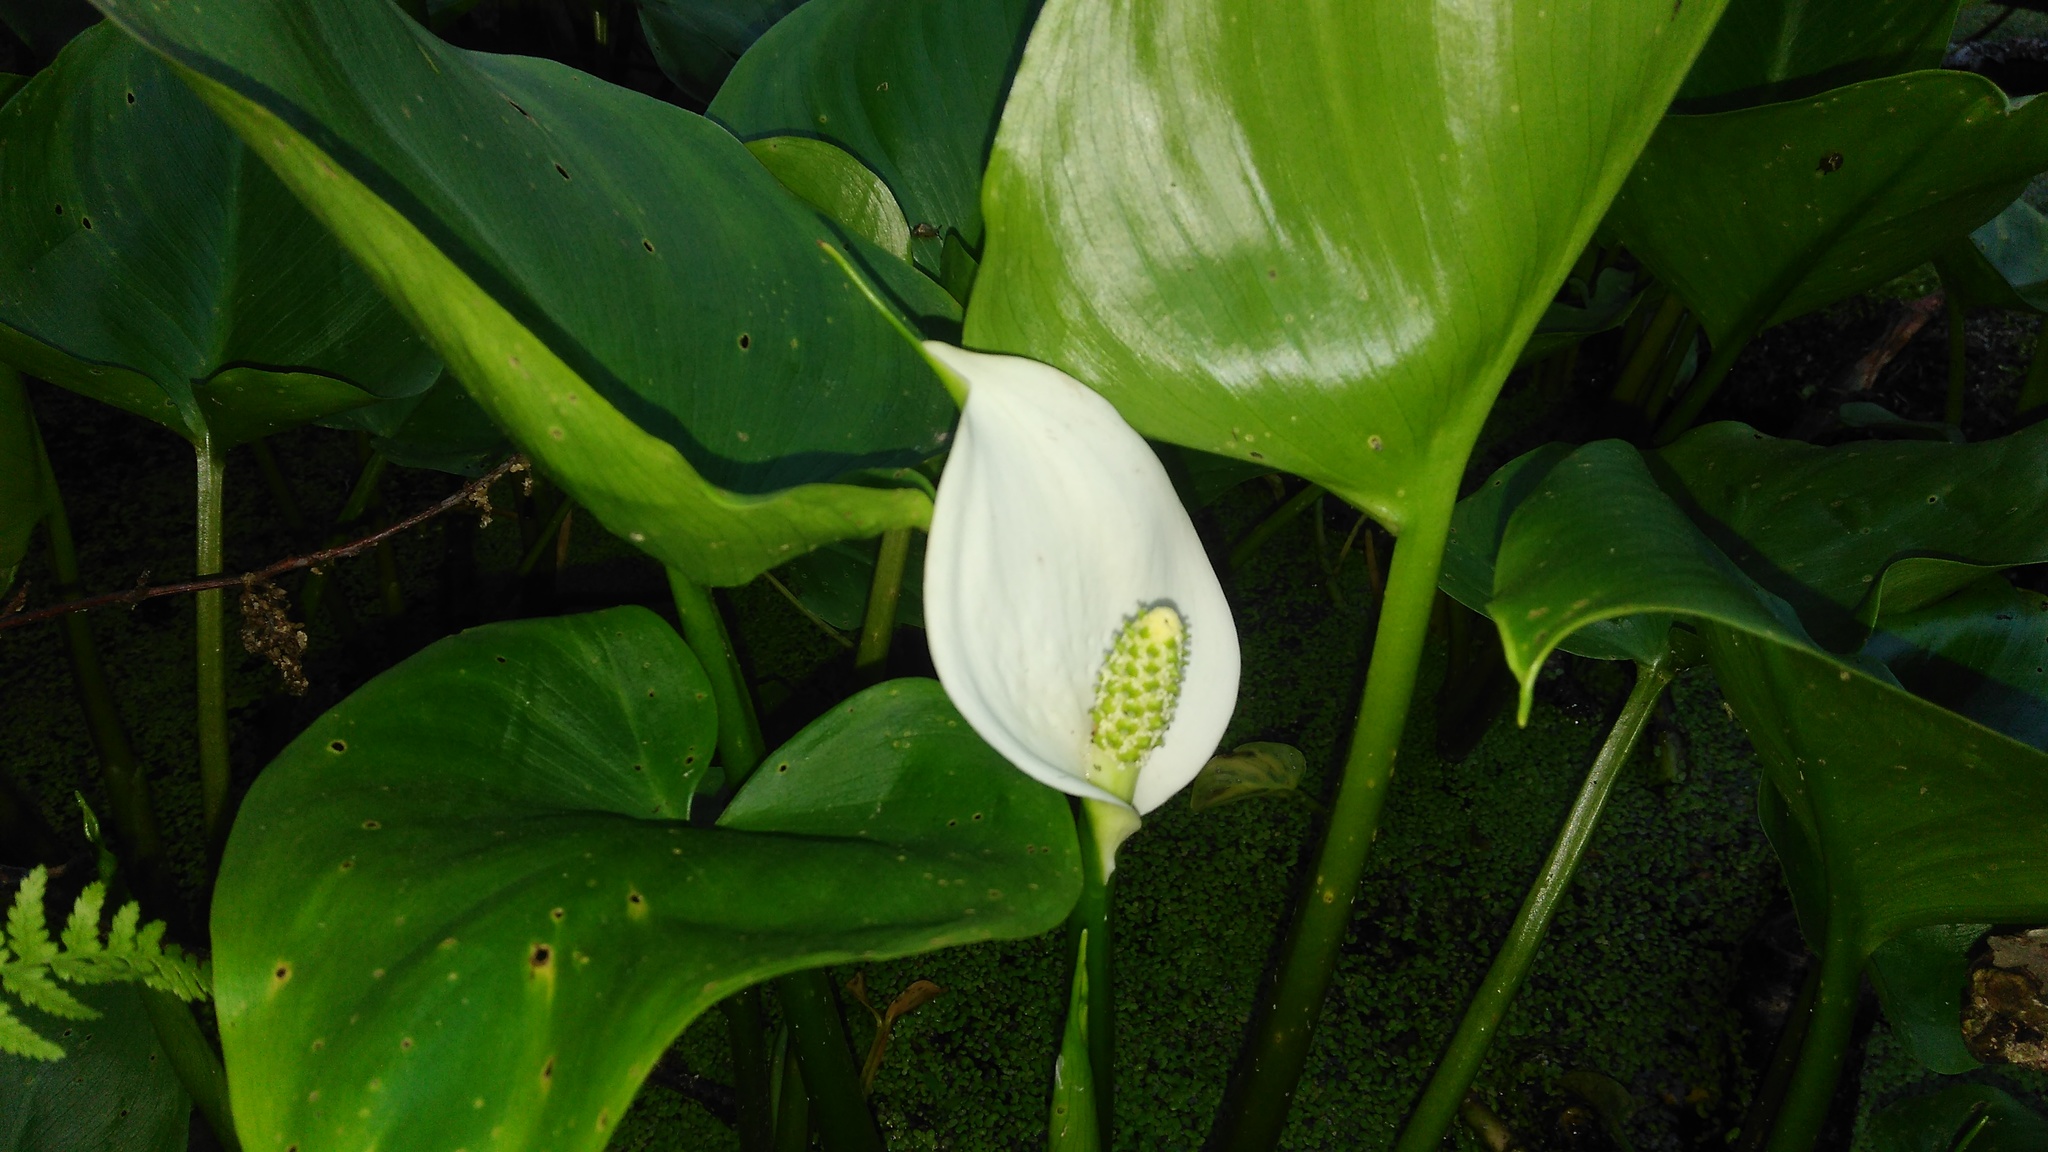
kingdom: Plantae
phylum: Tracheophyta
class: Liliopsida
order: Alismatales
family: Araceae
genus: Calla
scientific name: Calla palustris
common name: Bog arum
